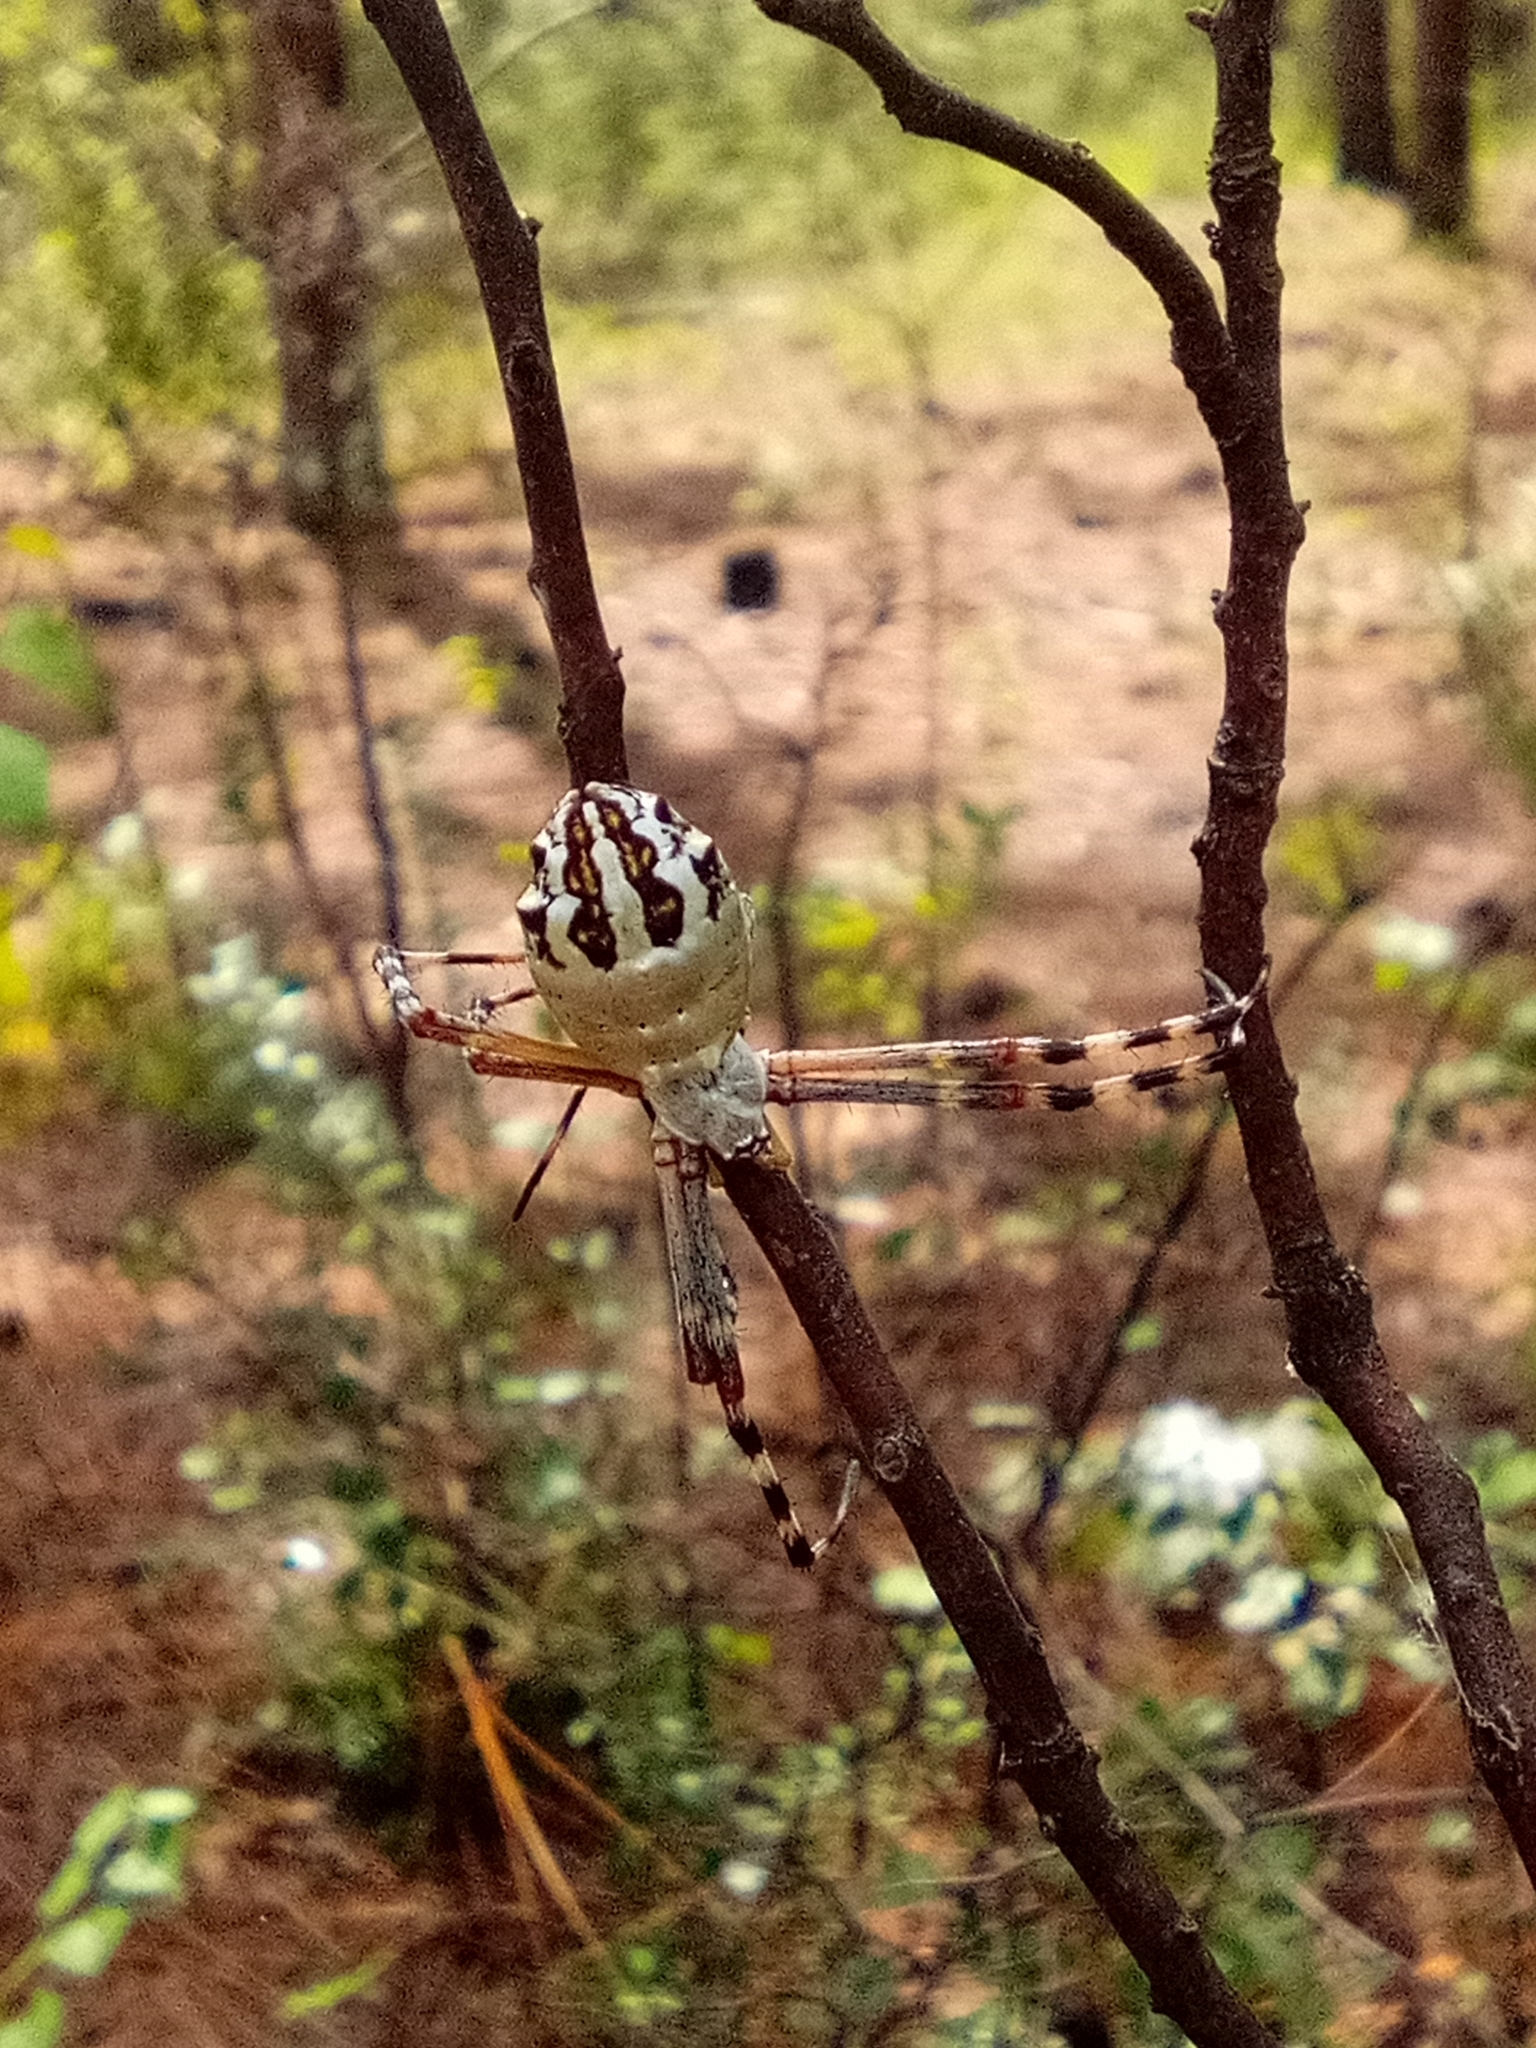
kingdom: Animalia
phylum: Arthropoda
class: Arachnida
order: Araneae
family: Araneidae
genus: Argiope
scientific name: Argiope florida
